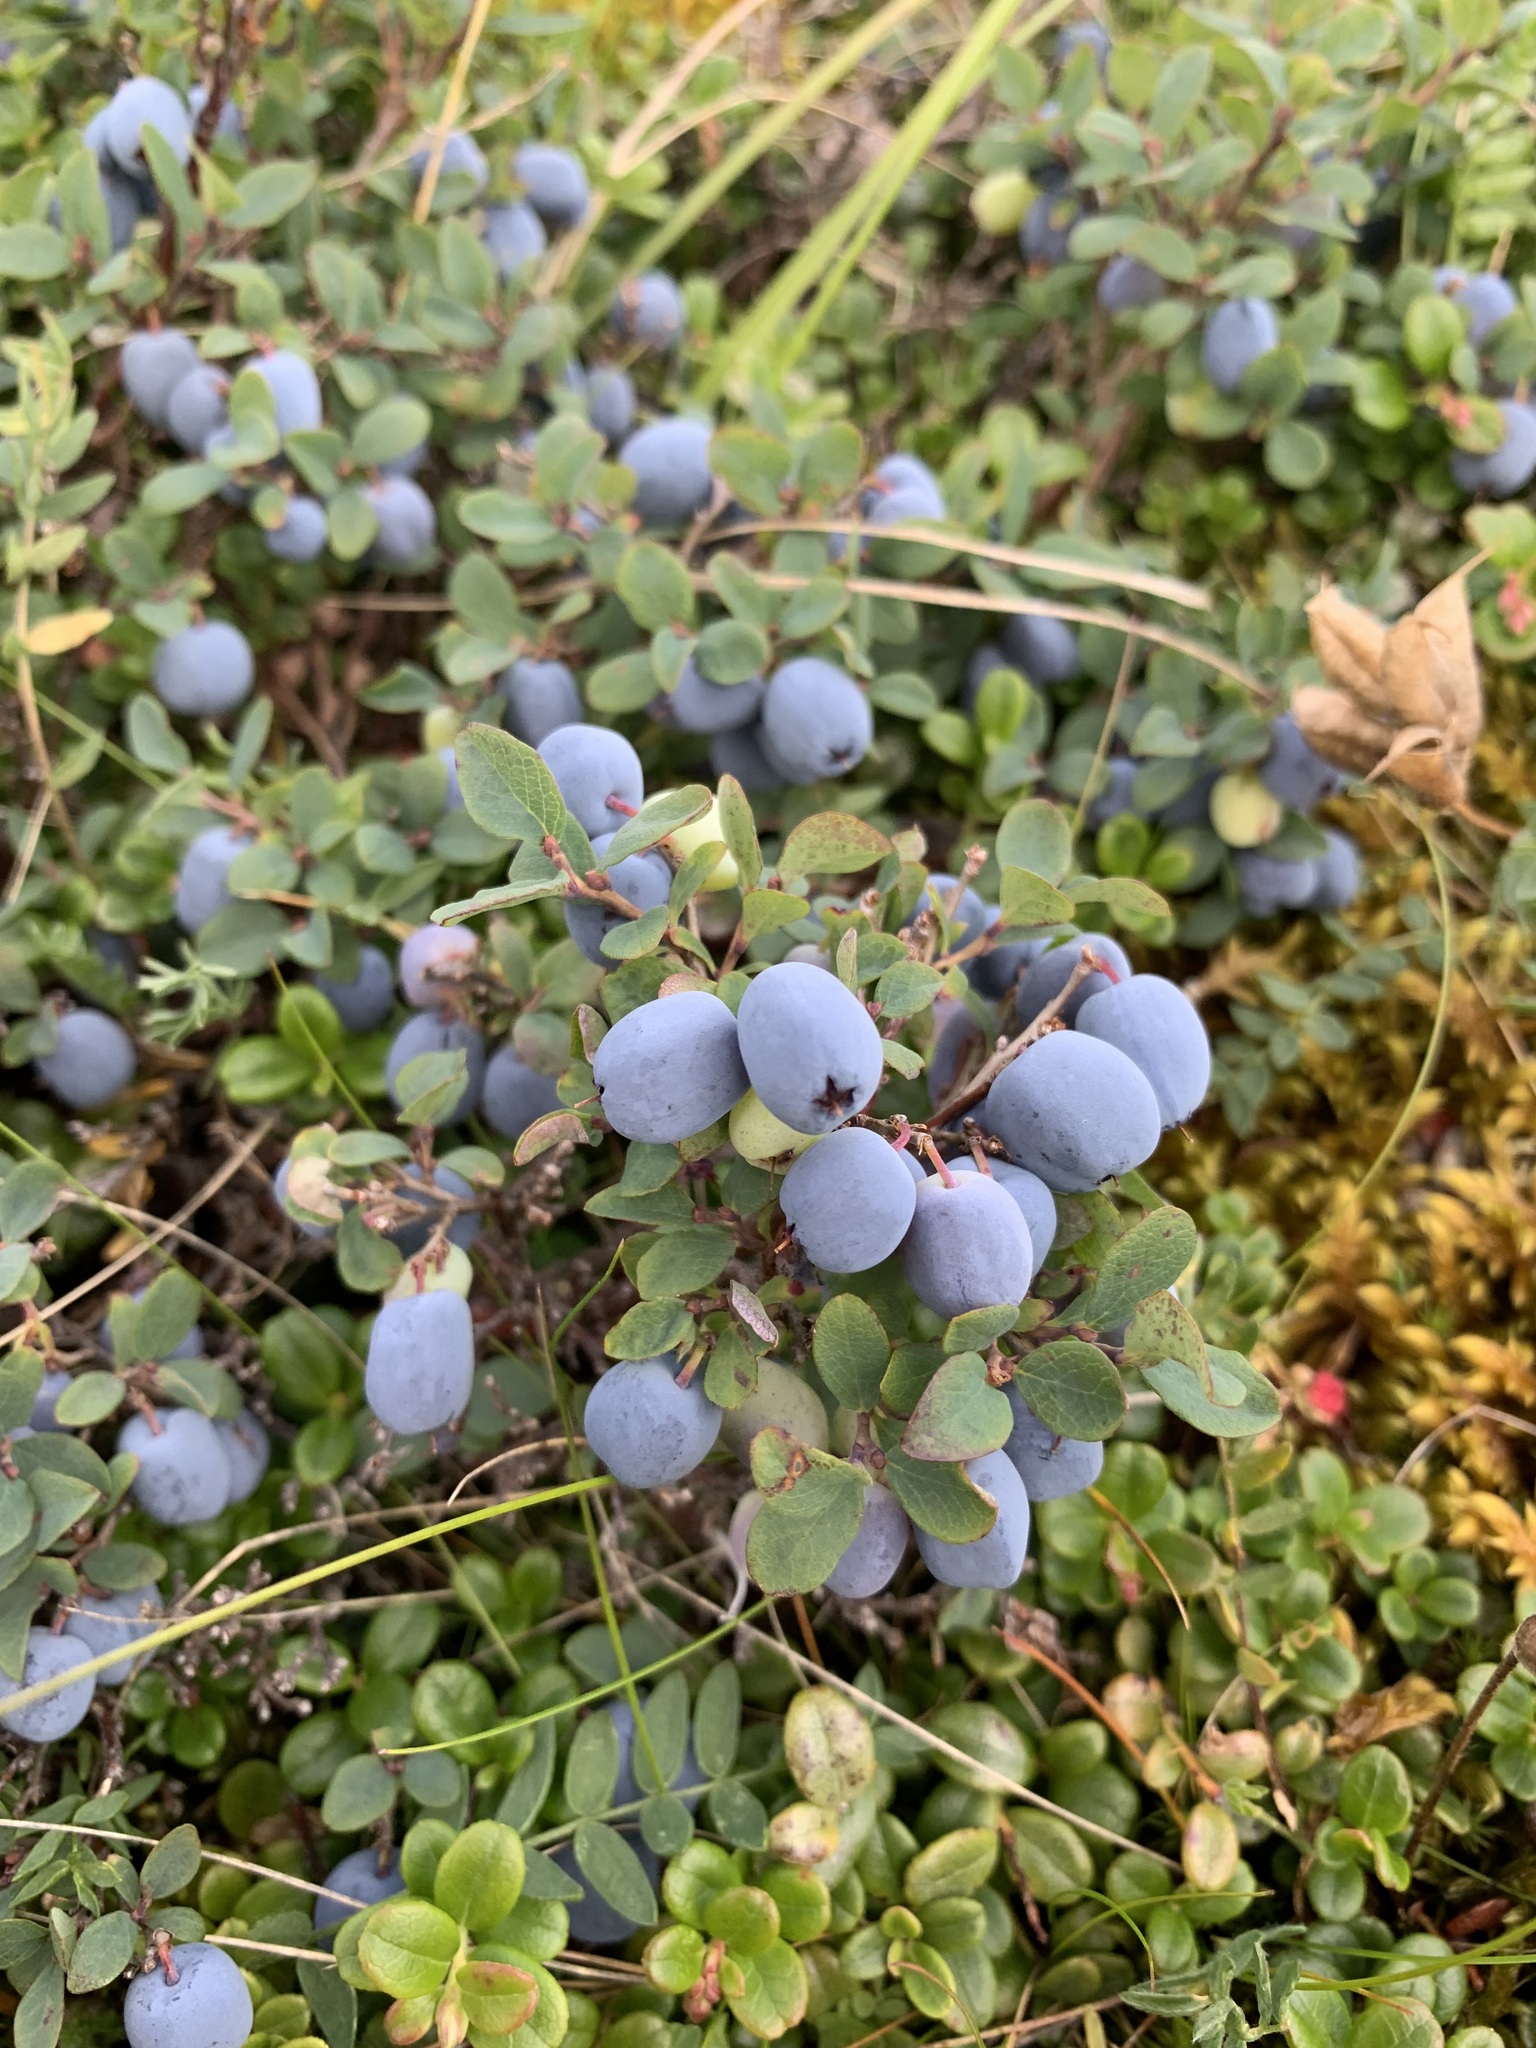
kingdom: Plantae
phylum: Tracheophyta
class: Magnoliopsida
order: Ericales
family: Ericaceae
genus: Vaccinium
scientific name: Vaccinium uliginosum
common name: Bog bilberry
